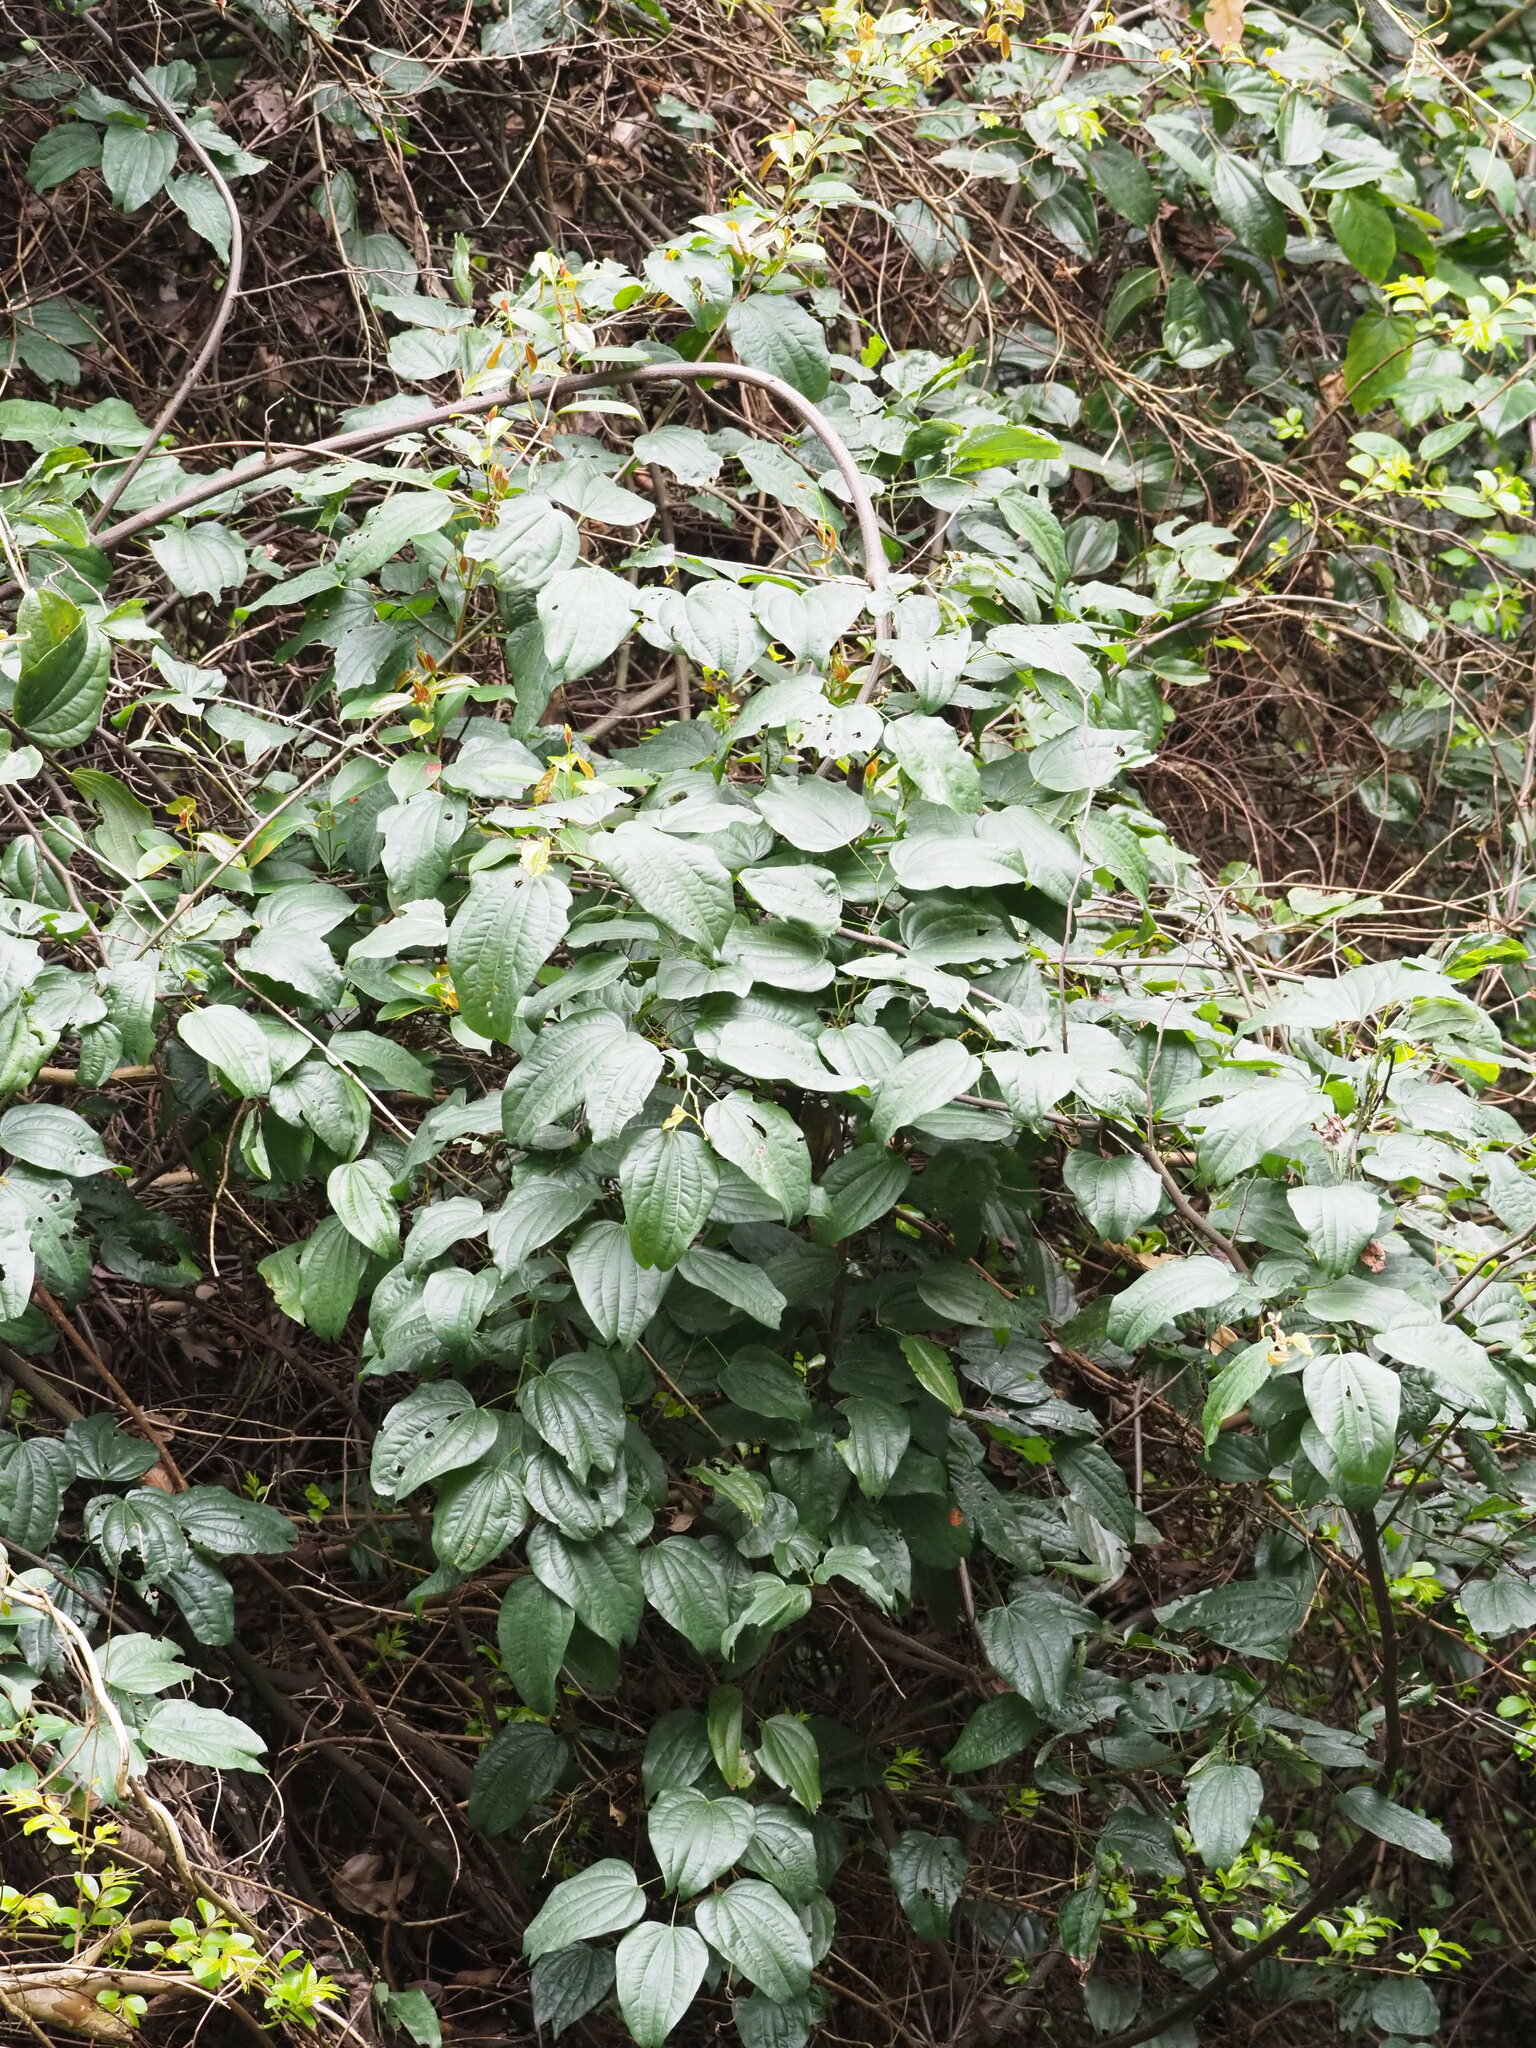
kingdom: Plantae
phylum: Tracheophyta
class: Magnoliopsida
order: Fabales
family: Fabaceae
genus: Phanera
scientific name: Phanera championii
